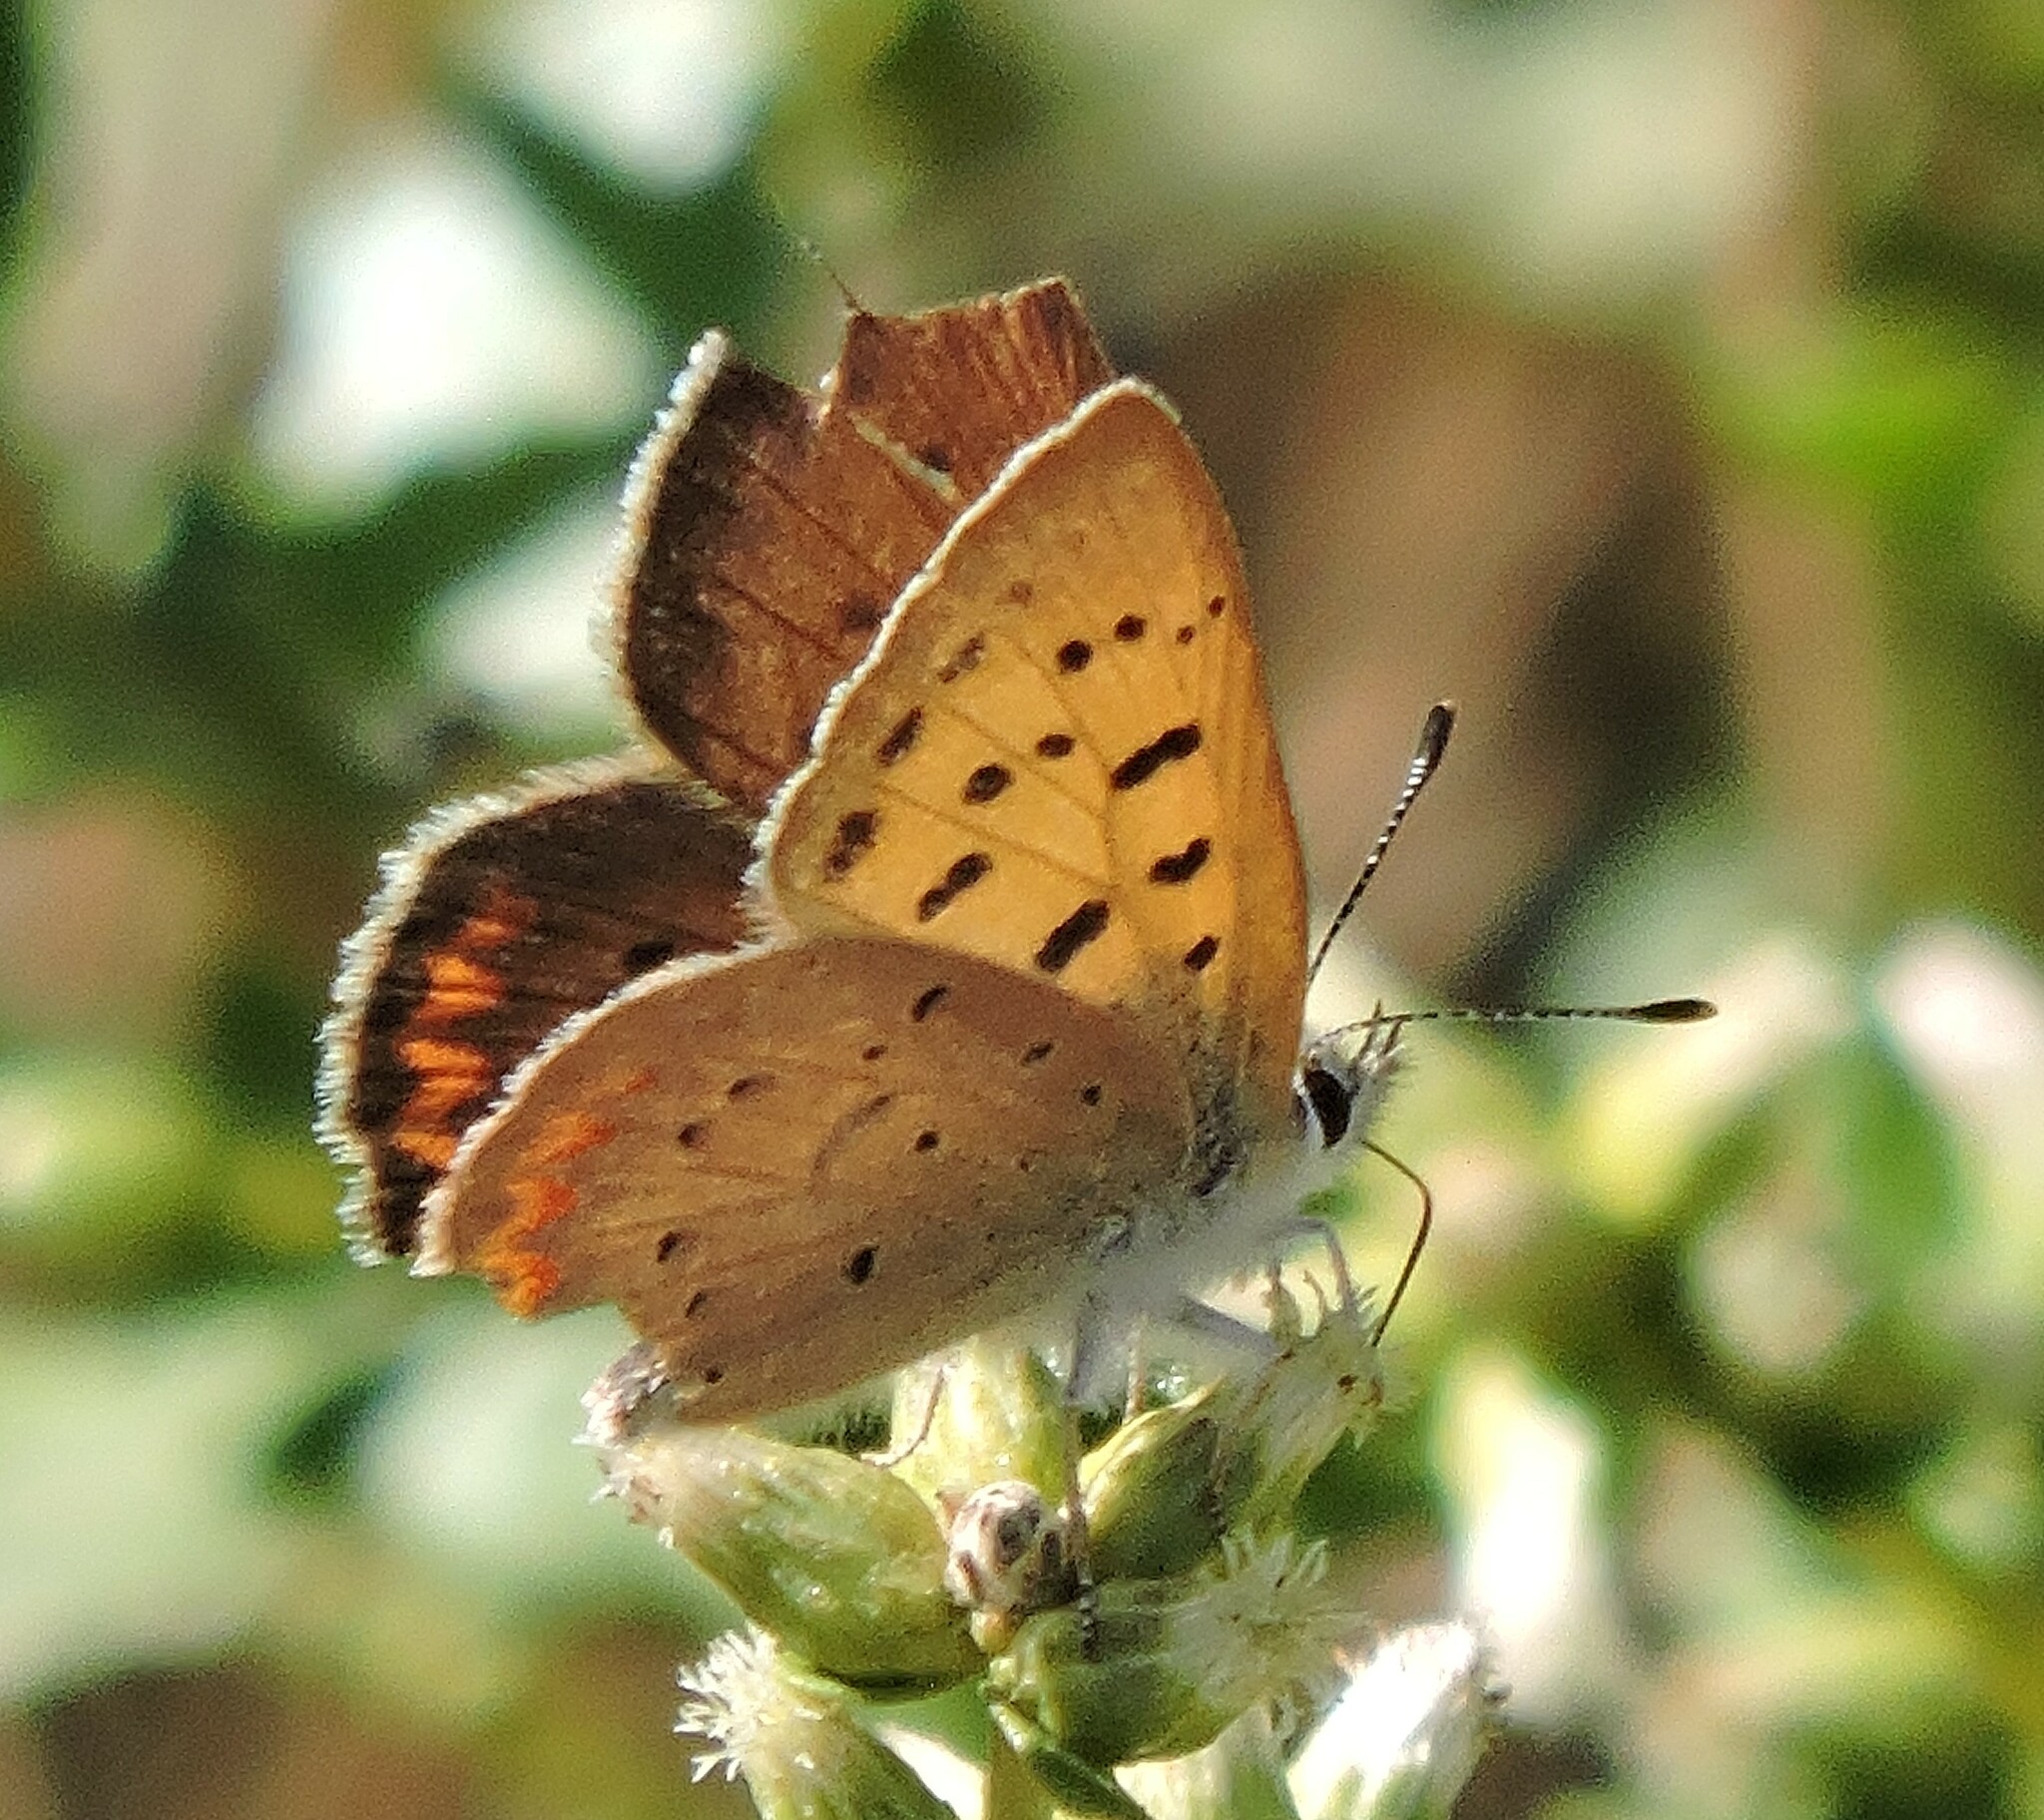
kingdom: Animalia
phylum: Arthropoda
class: Insecta
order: Lepidoptera
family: Lycaenidae
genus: Tharsalea
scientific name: Tharsalea helloides
